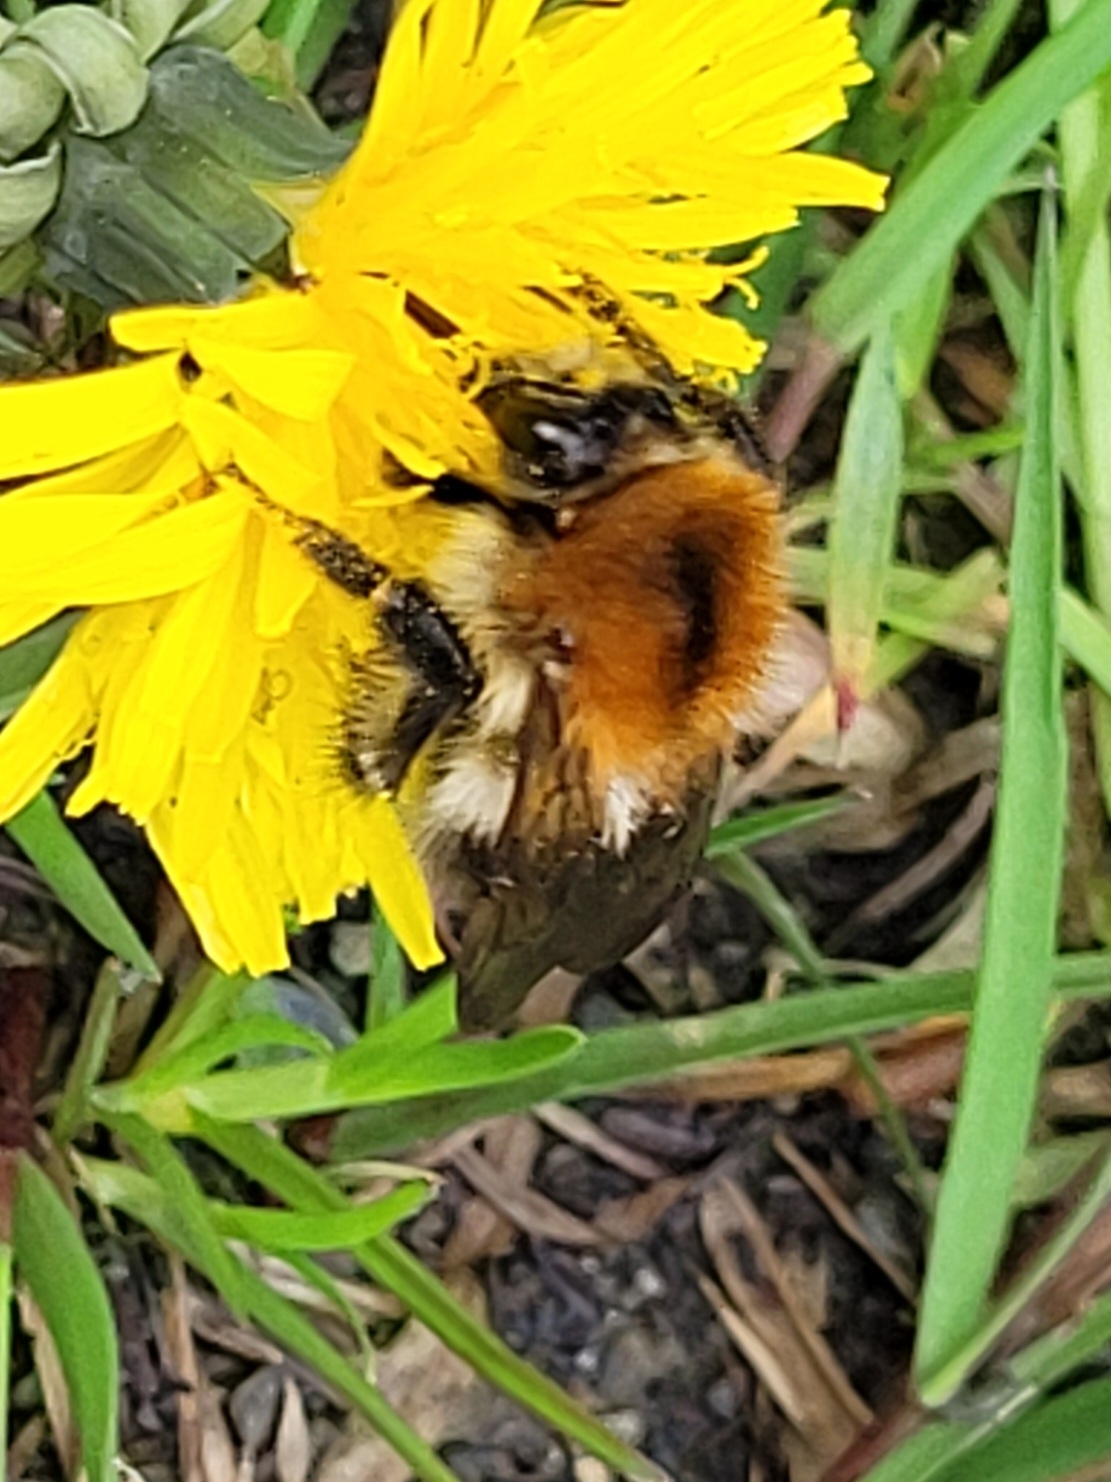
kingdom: Animalia
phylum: Arthropoda
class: Insecta
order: Hymenoptera
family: Apidae
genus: Bombus
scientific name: Bombus pascuorum
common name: Common carder bee
